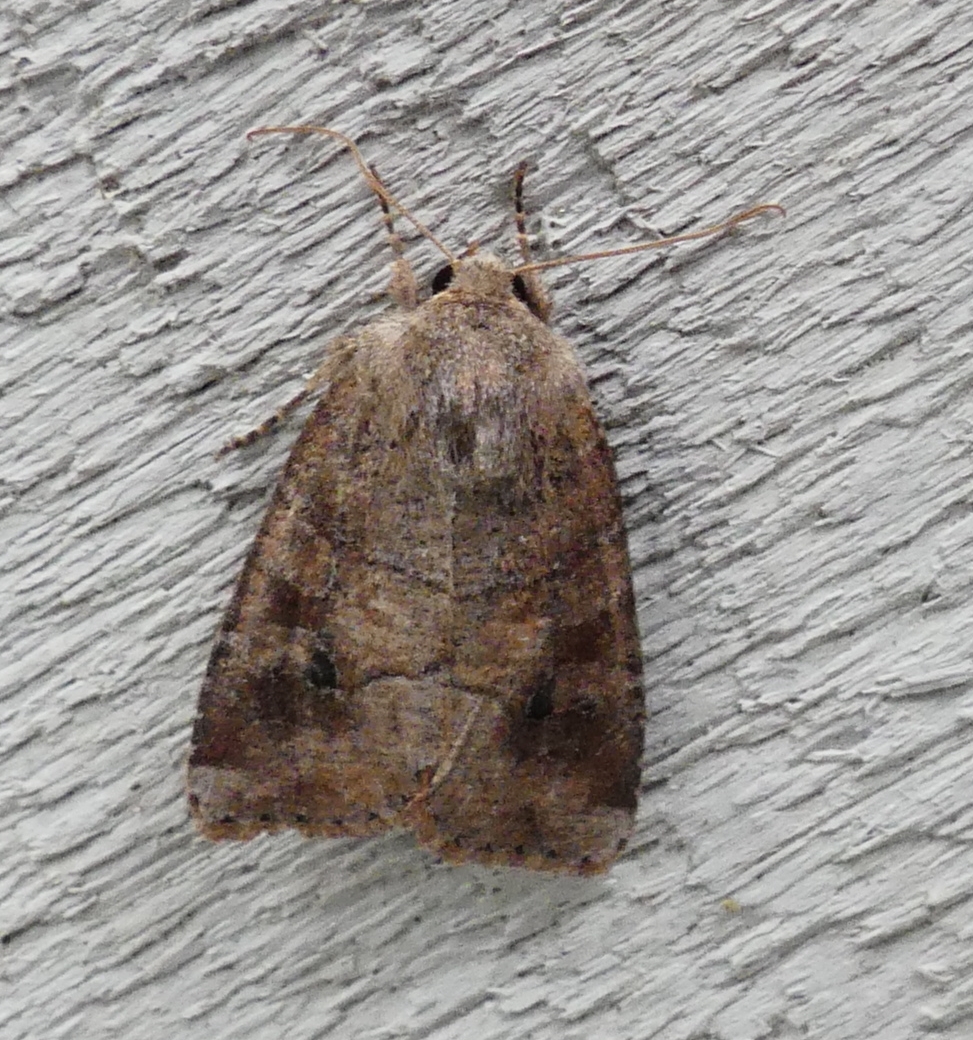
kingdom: Animalia
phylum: Arthropoda
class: Insecta
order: Lepidoptera
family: Noctuidae
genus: Crocigrapha
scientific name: Crocigrapha normani
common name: Norman's quaker
